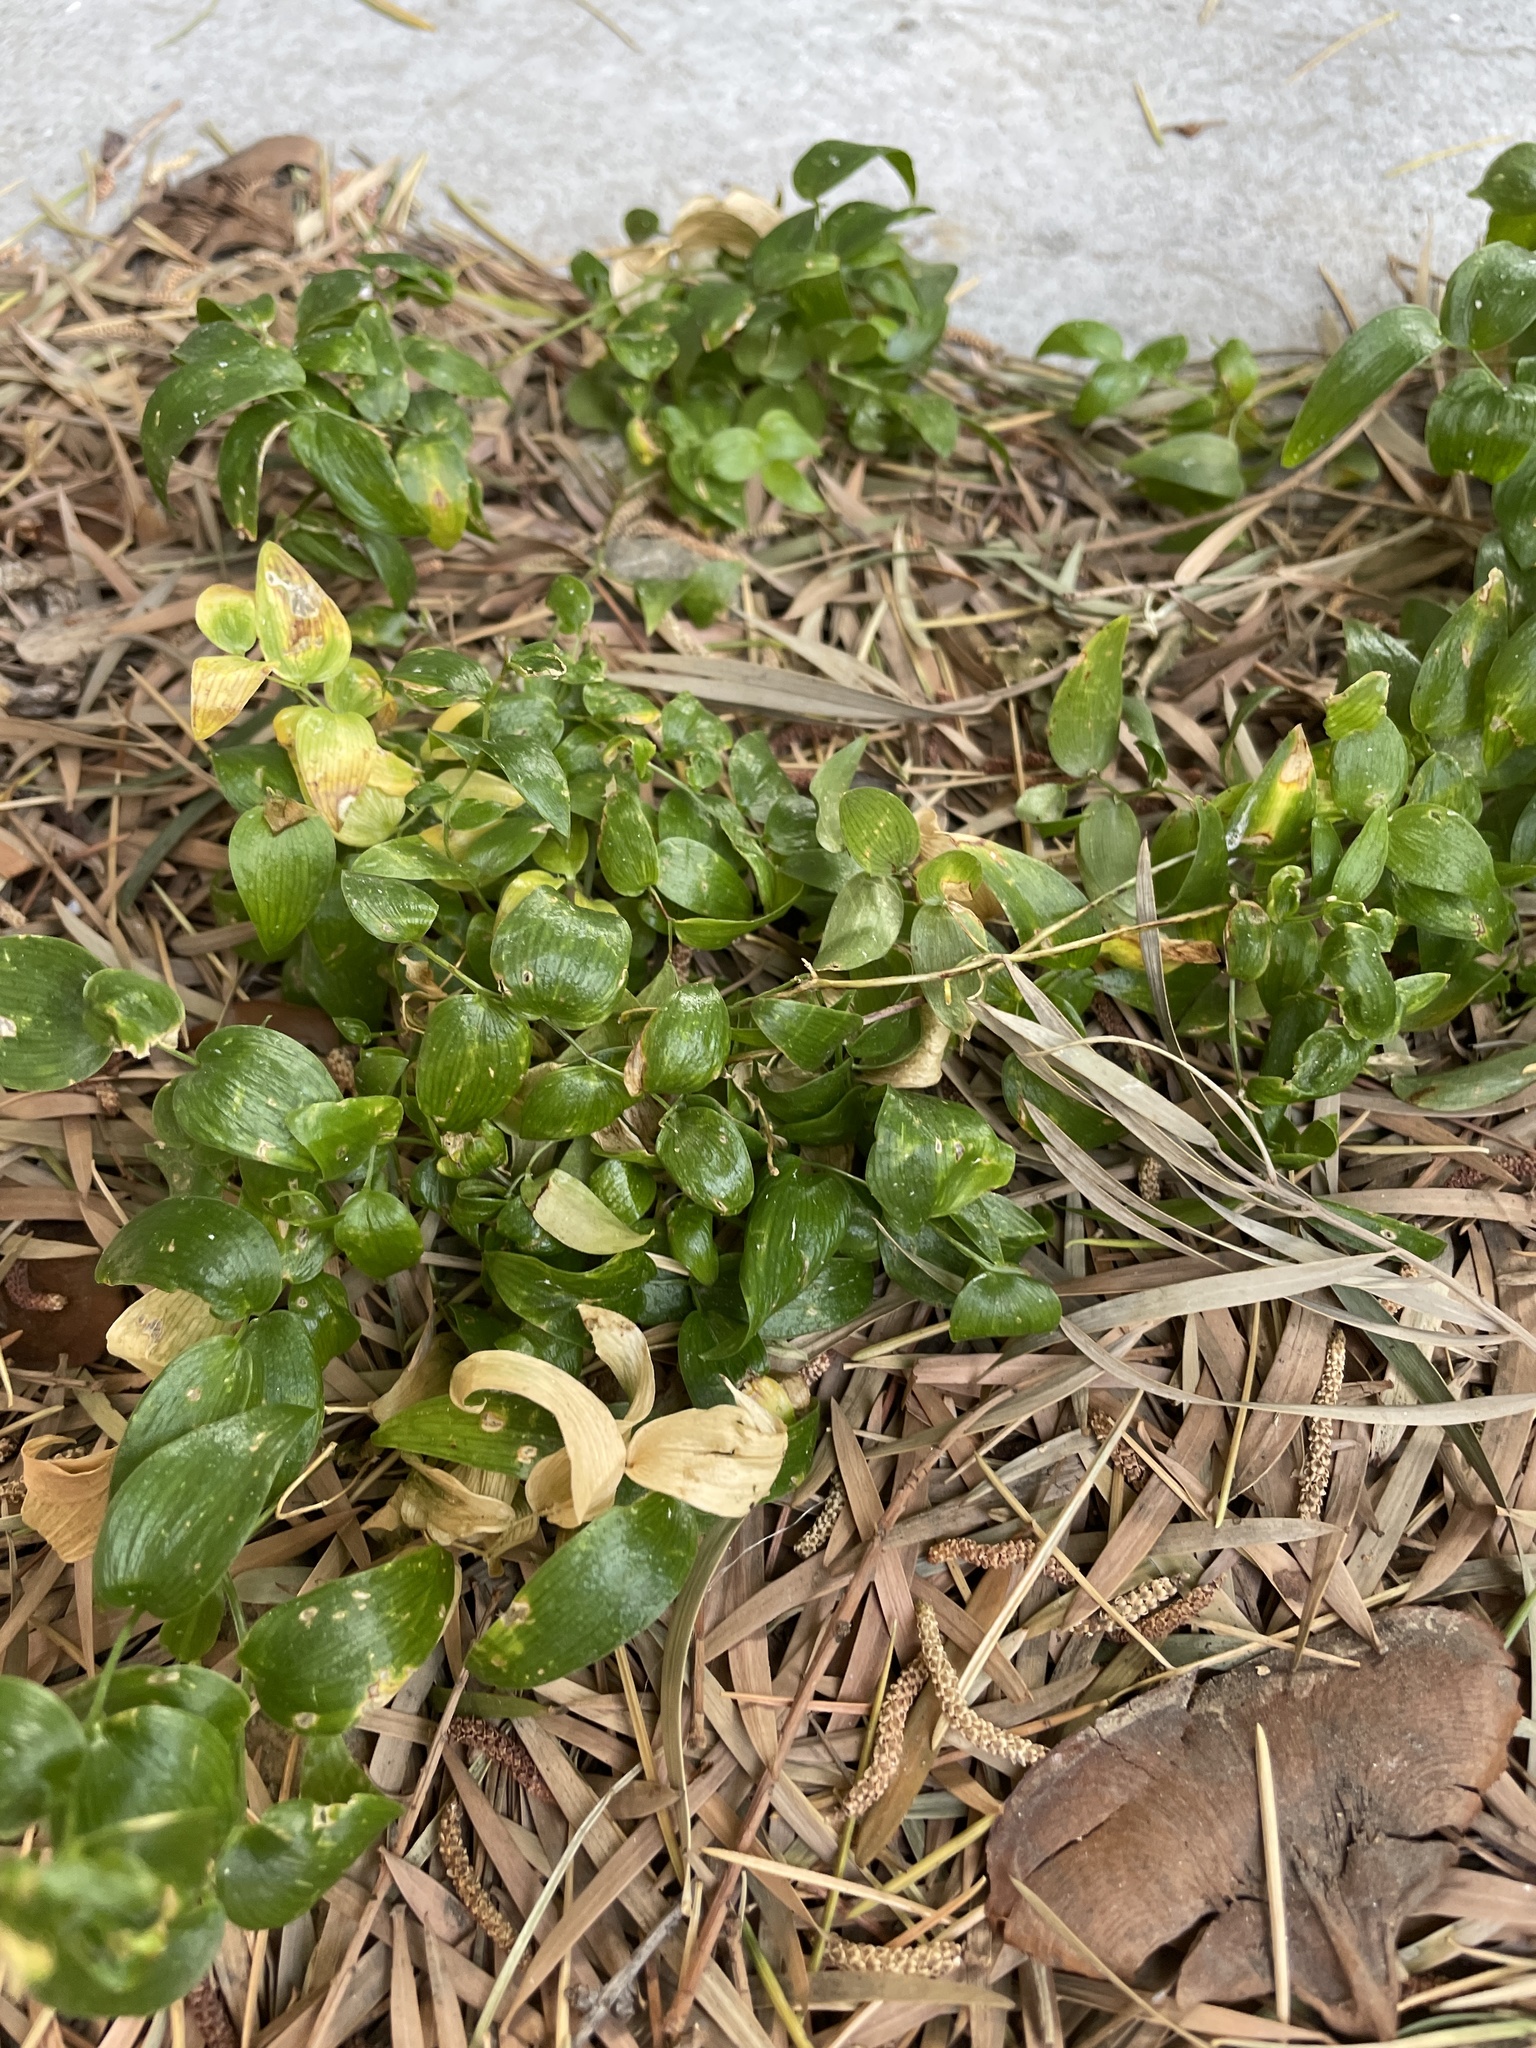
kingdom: Plantae
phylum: Tracheophyta
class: Liliopsida
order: Asparagales
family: Asparagaceae
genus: Asparagus
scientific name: Asparagus asparagoides
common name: African asparagus fern
